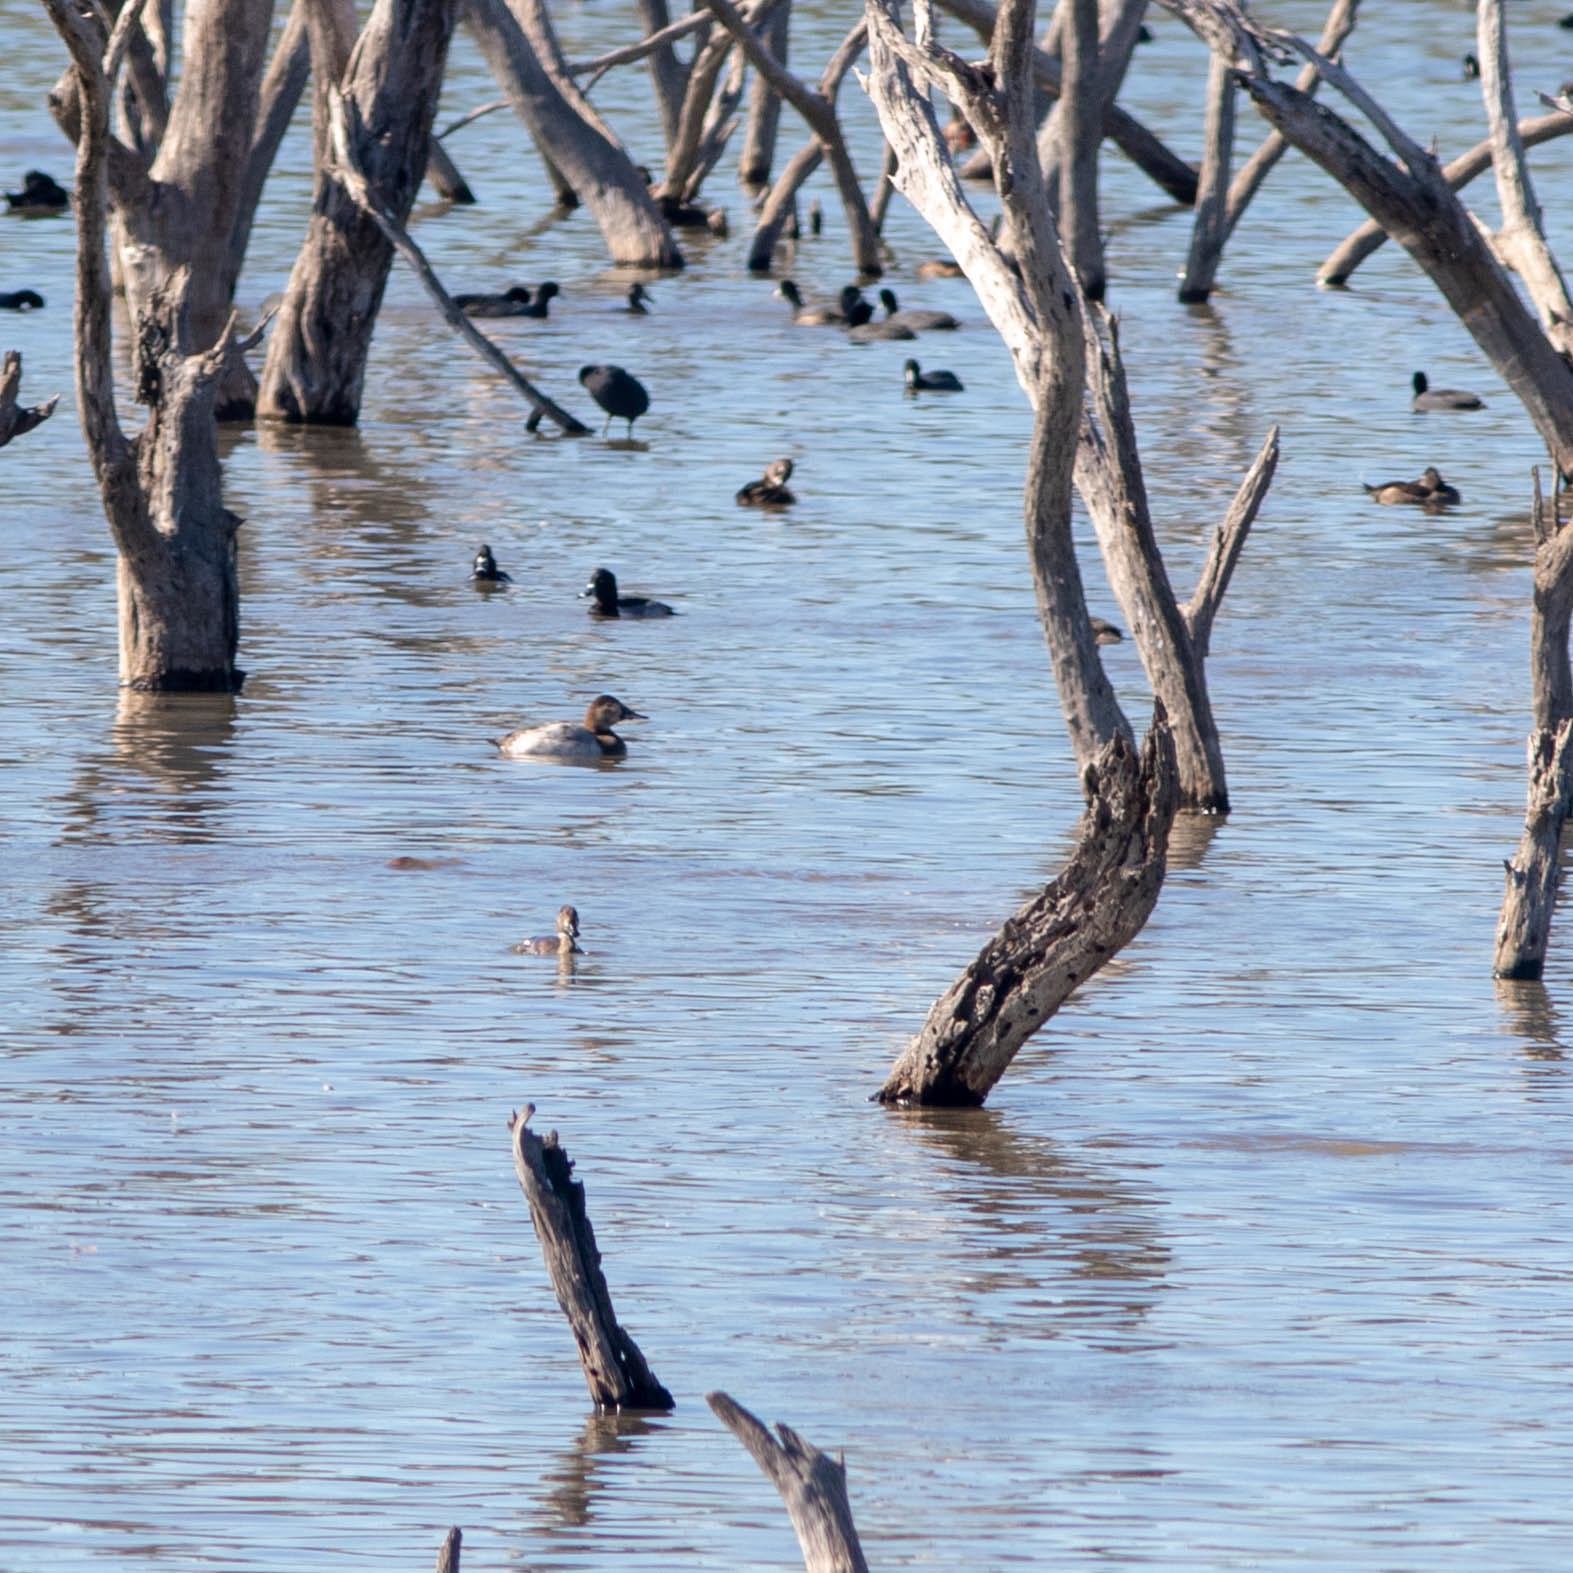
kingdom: Animalia
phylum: Chordata
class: Aves
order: Anseriformes
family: Anatidae
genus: Aythya
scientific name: Aythya valisineria
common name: Canvasback
